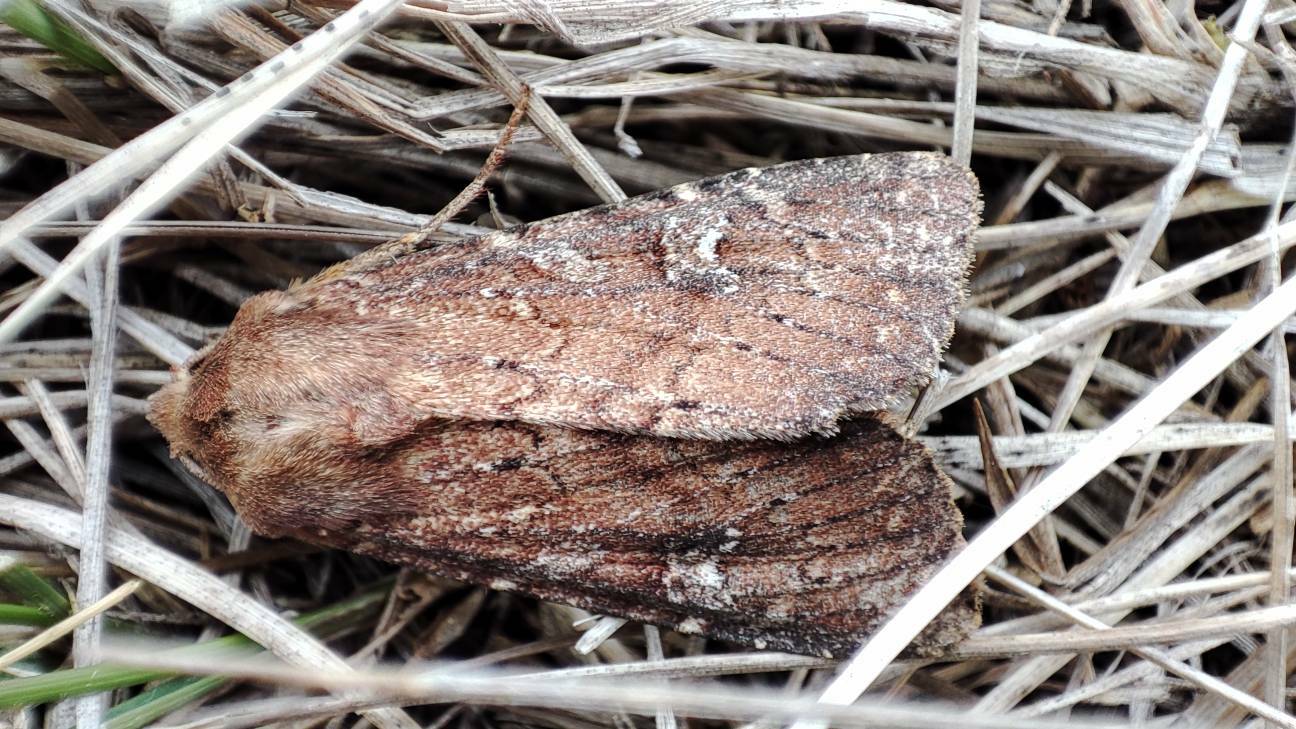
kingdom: Animalia
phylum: Arthropoda
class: Insecta
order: Lepidoptera
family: Noctuidae
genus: Apamea
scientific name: Apamea lateritia
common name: Scarce brindle
